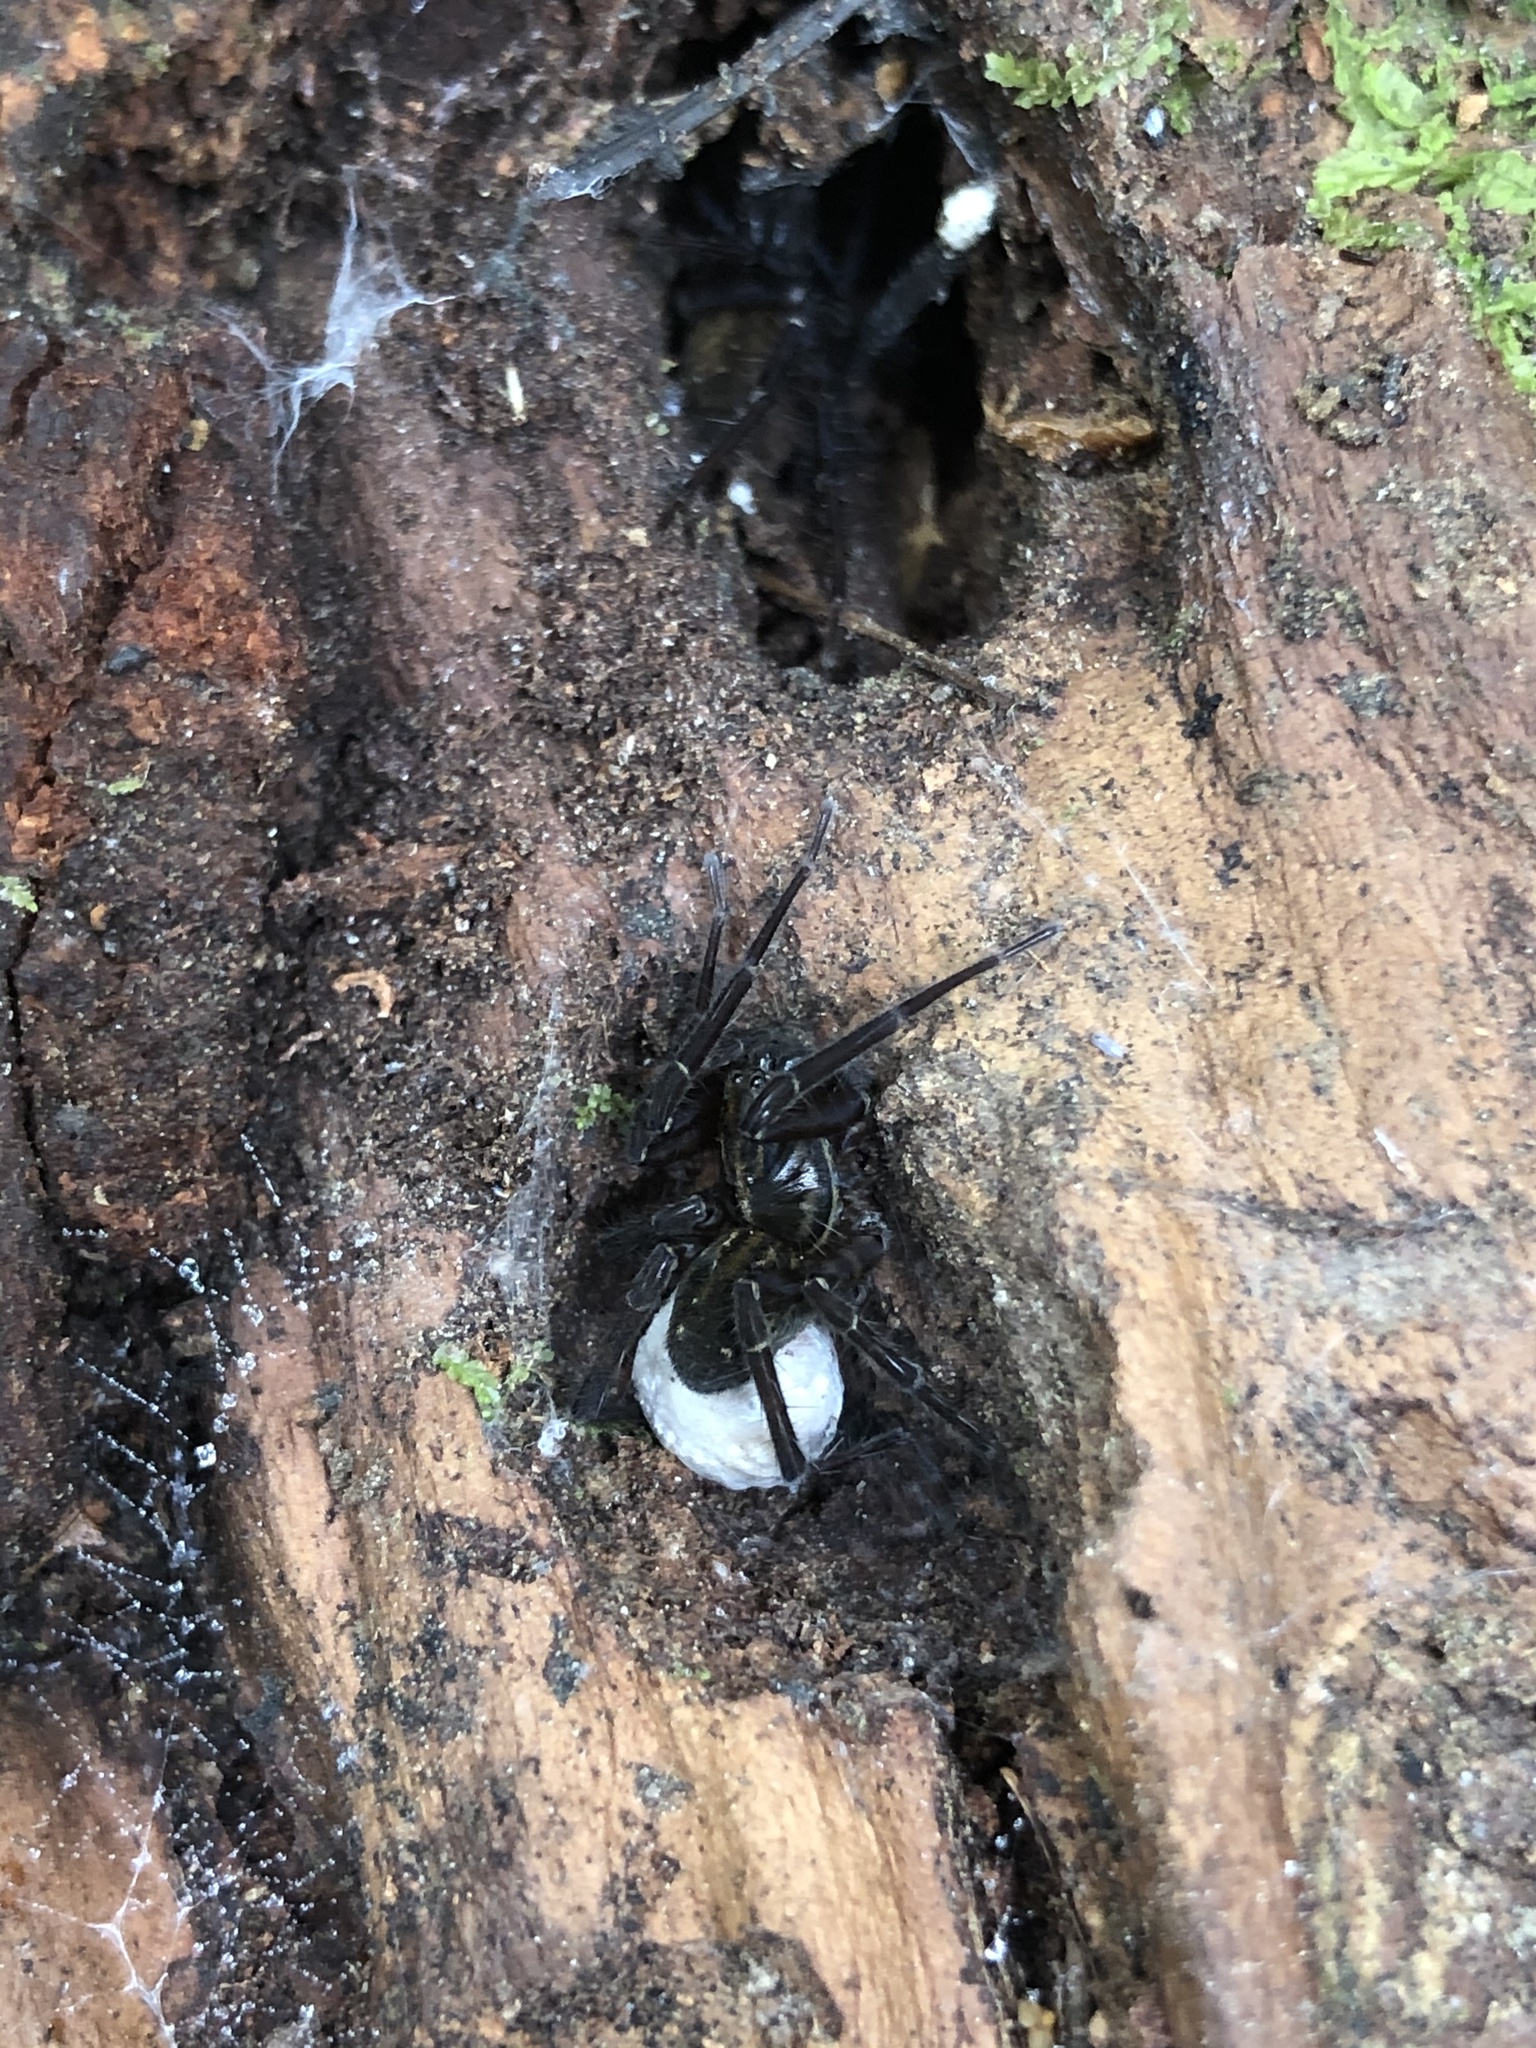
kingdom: Animalia
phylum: Arthropoda
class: Arachnida
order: Araneae
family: Lycosidae
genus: Allotrochosina
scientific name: Allotrochosina schauinslandi
